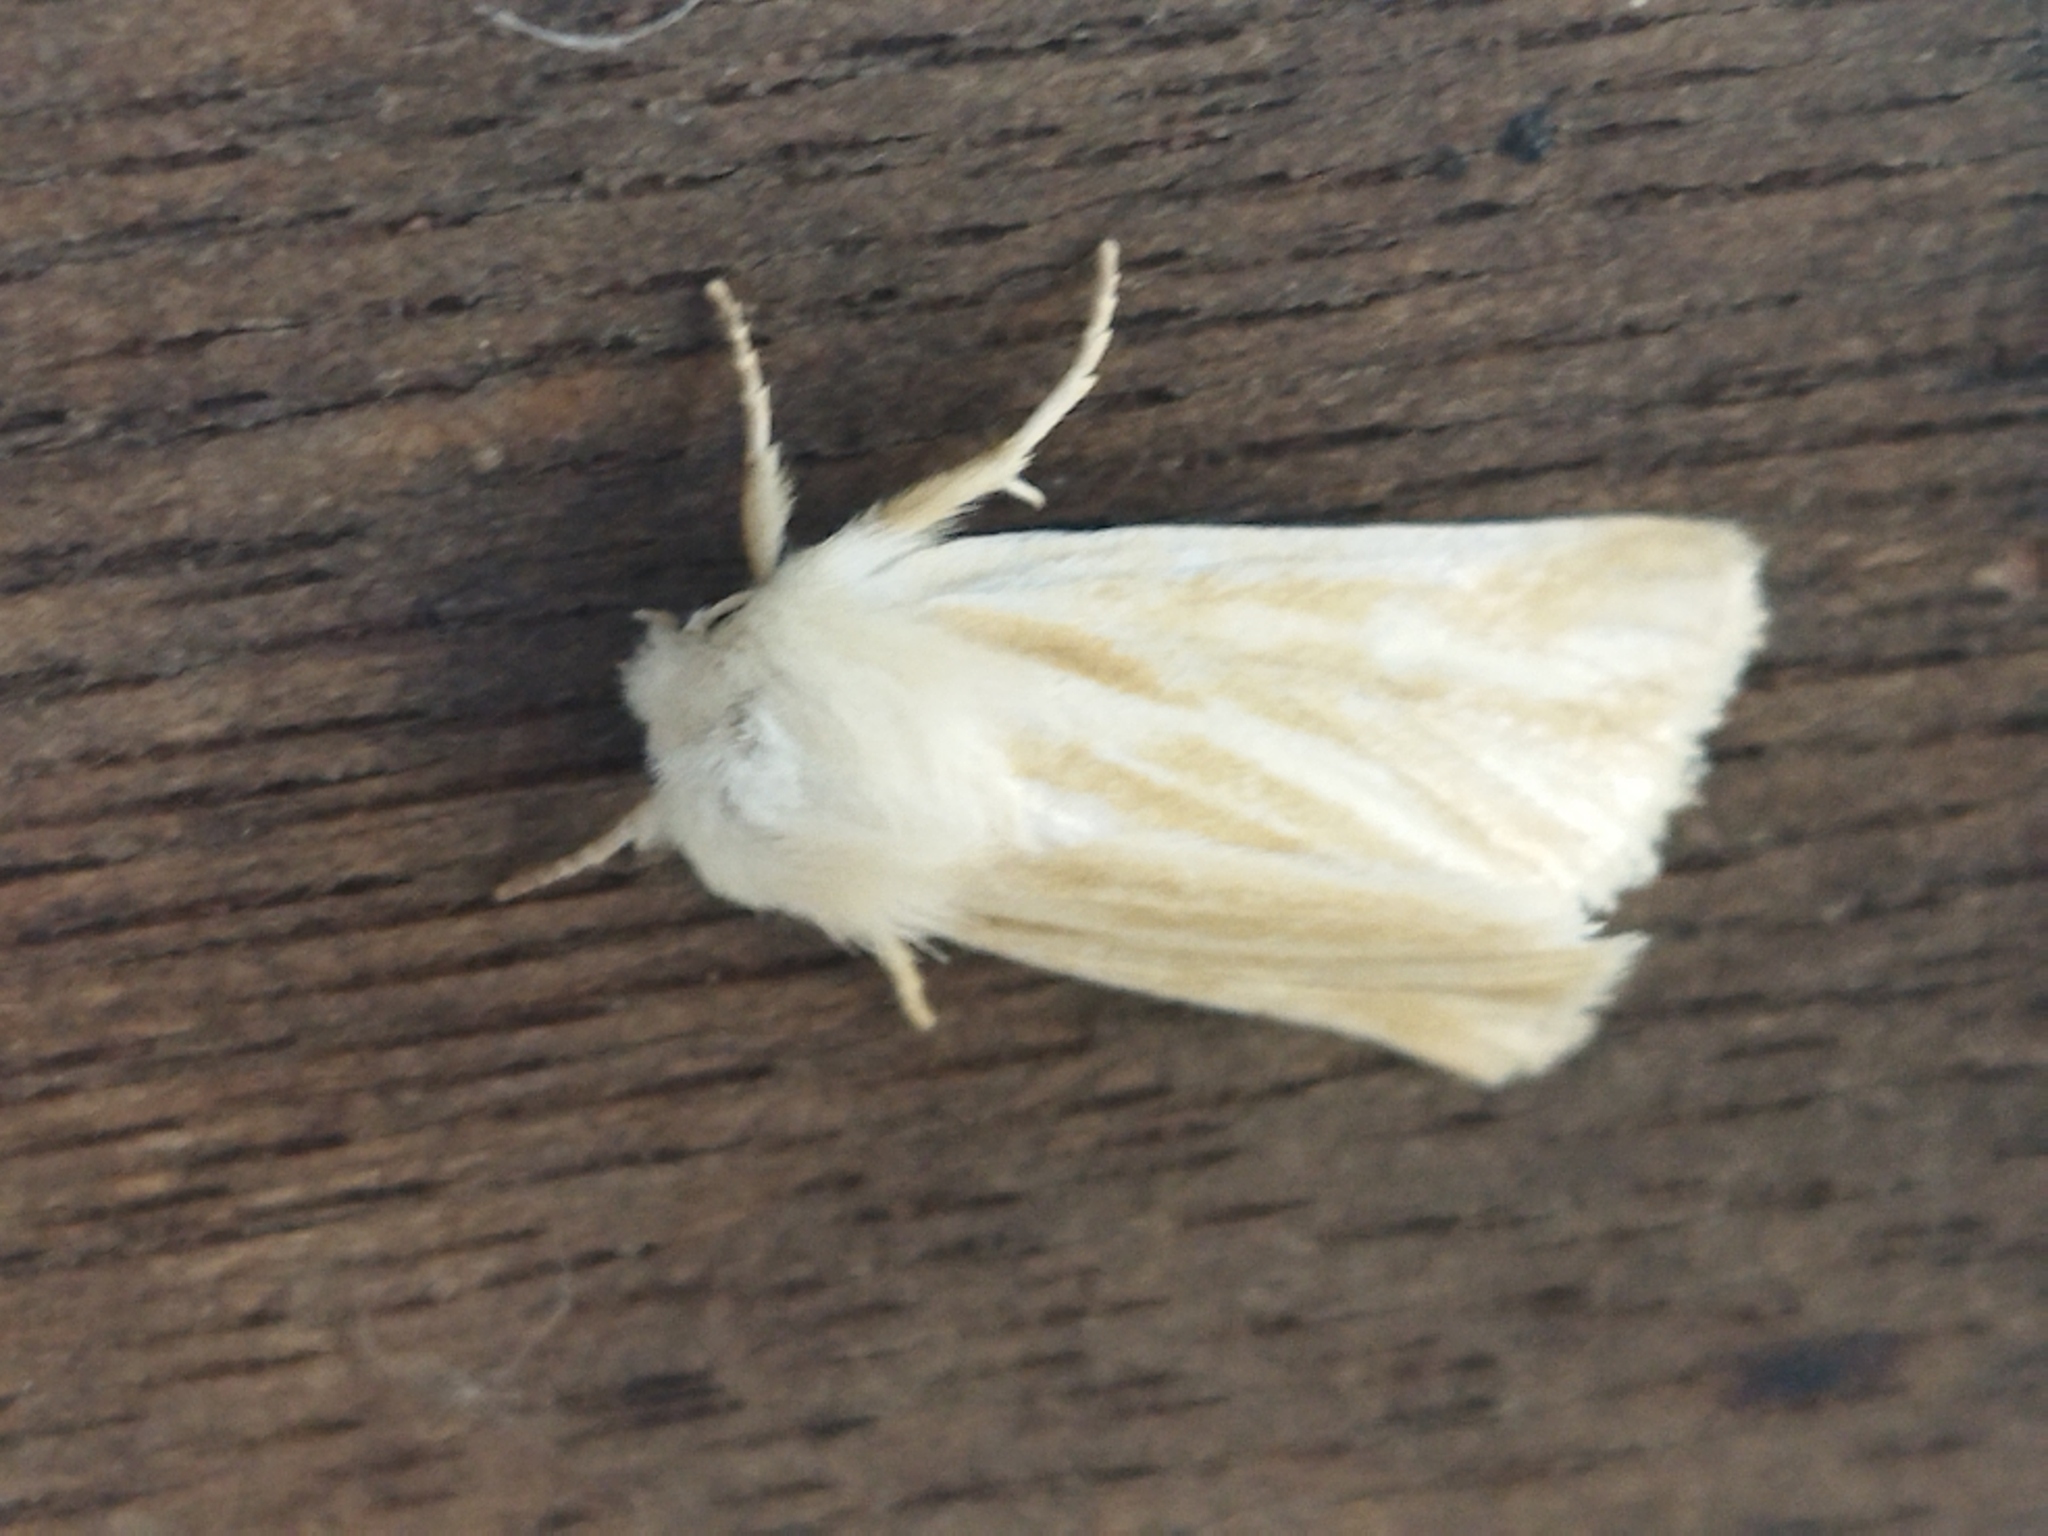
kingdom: Animalia
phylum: Arthropoda
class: Insecta
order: Lepidoptera
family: Noctuidae
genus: Oria
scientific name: Oria musculosa
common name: Brighton wainscot
